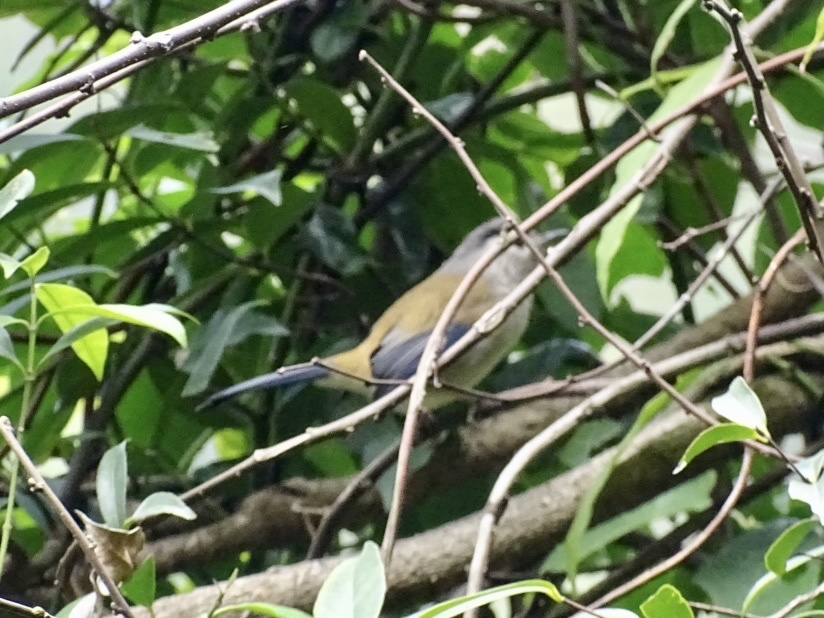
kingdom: Animalia
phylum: Chordata
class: Aves
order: Passeriformes
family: Leiothrichidae
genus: Minla
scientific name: Minla cyanouroptera
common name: Blue-winged minla
